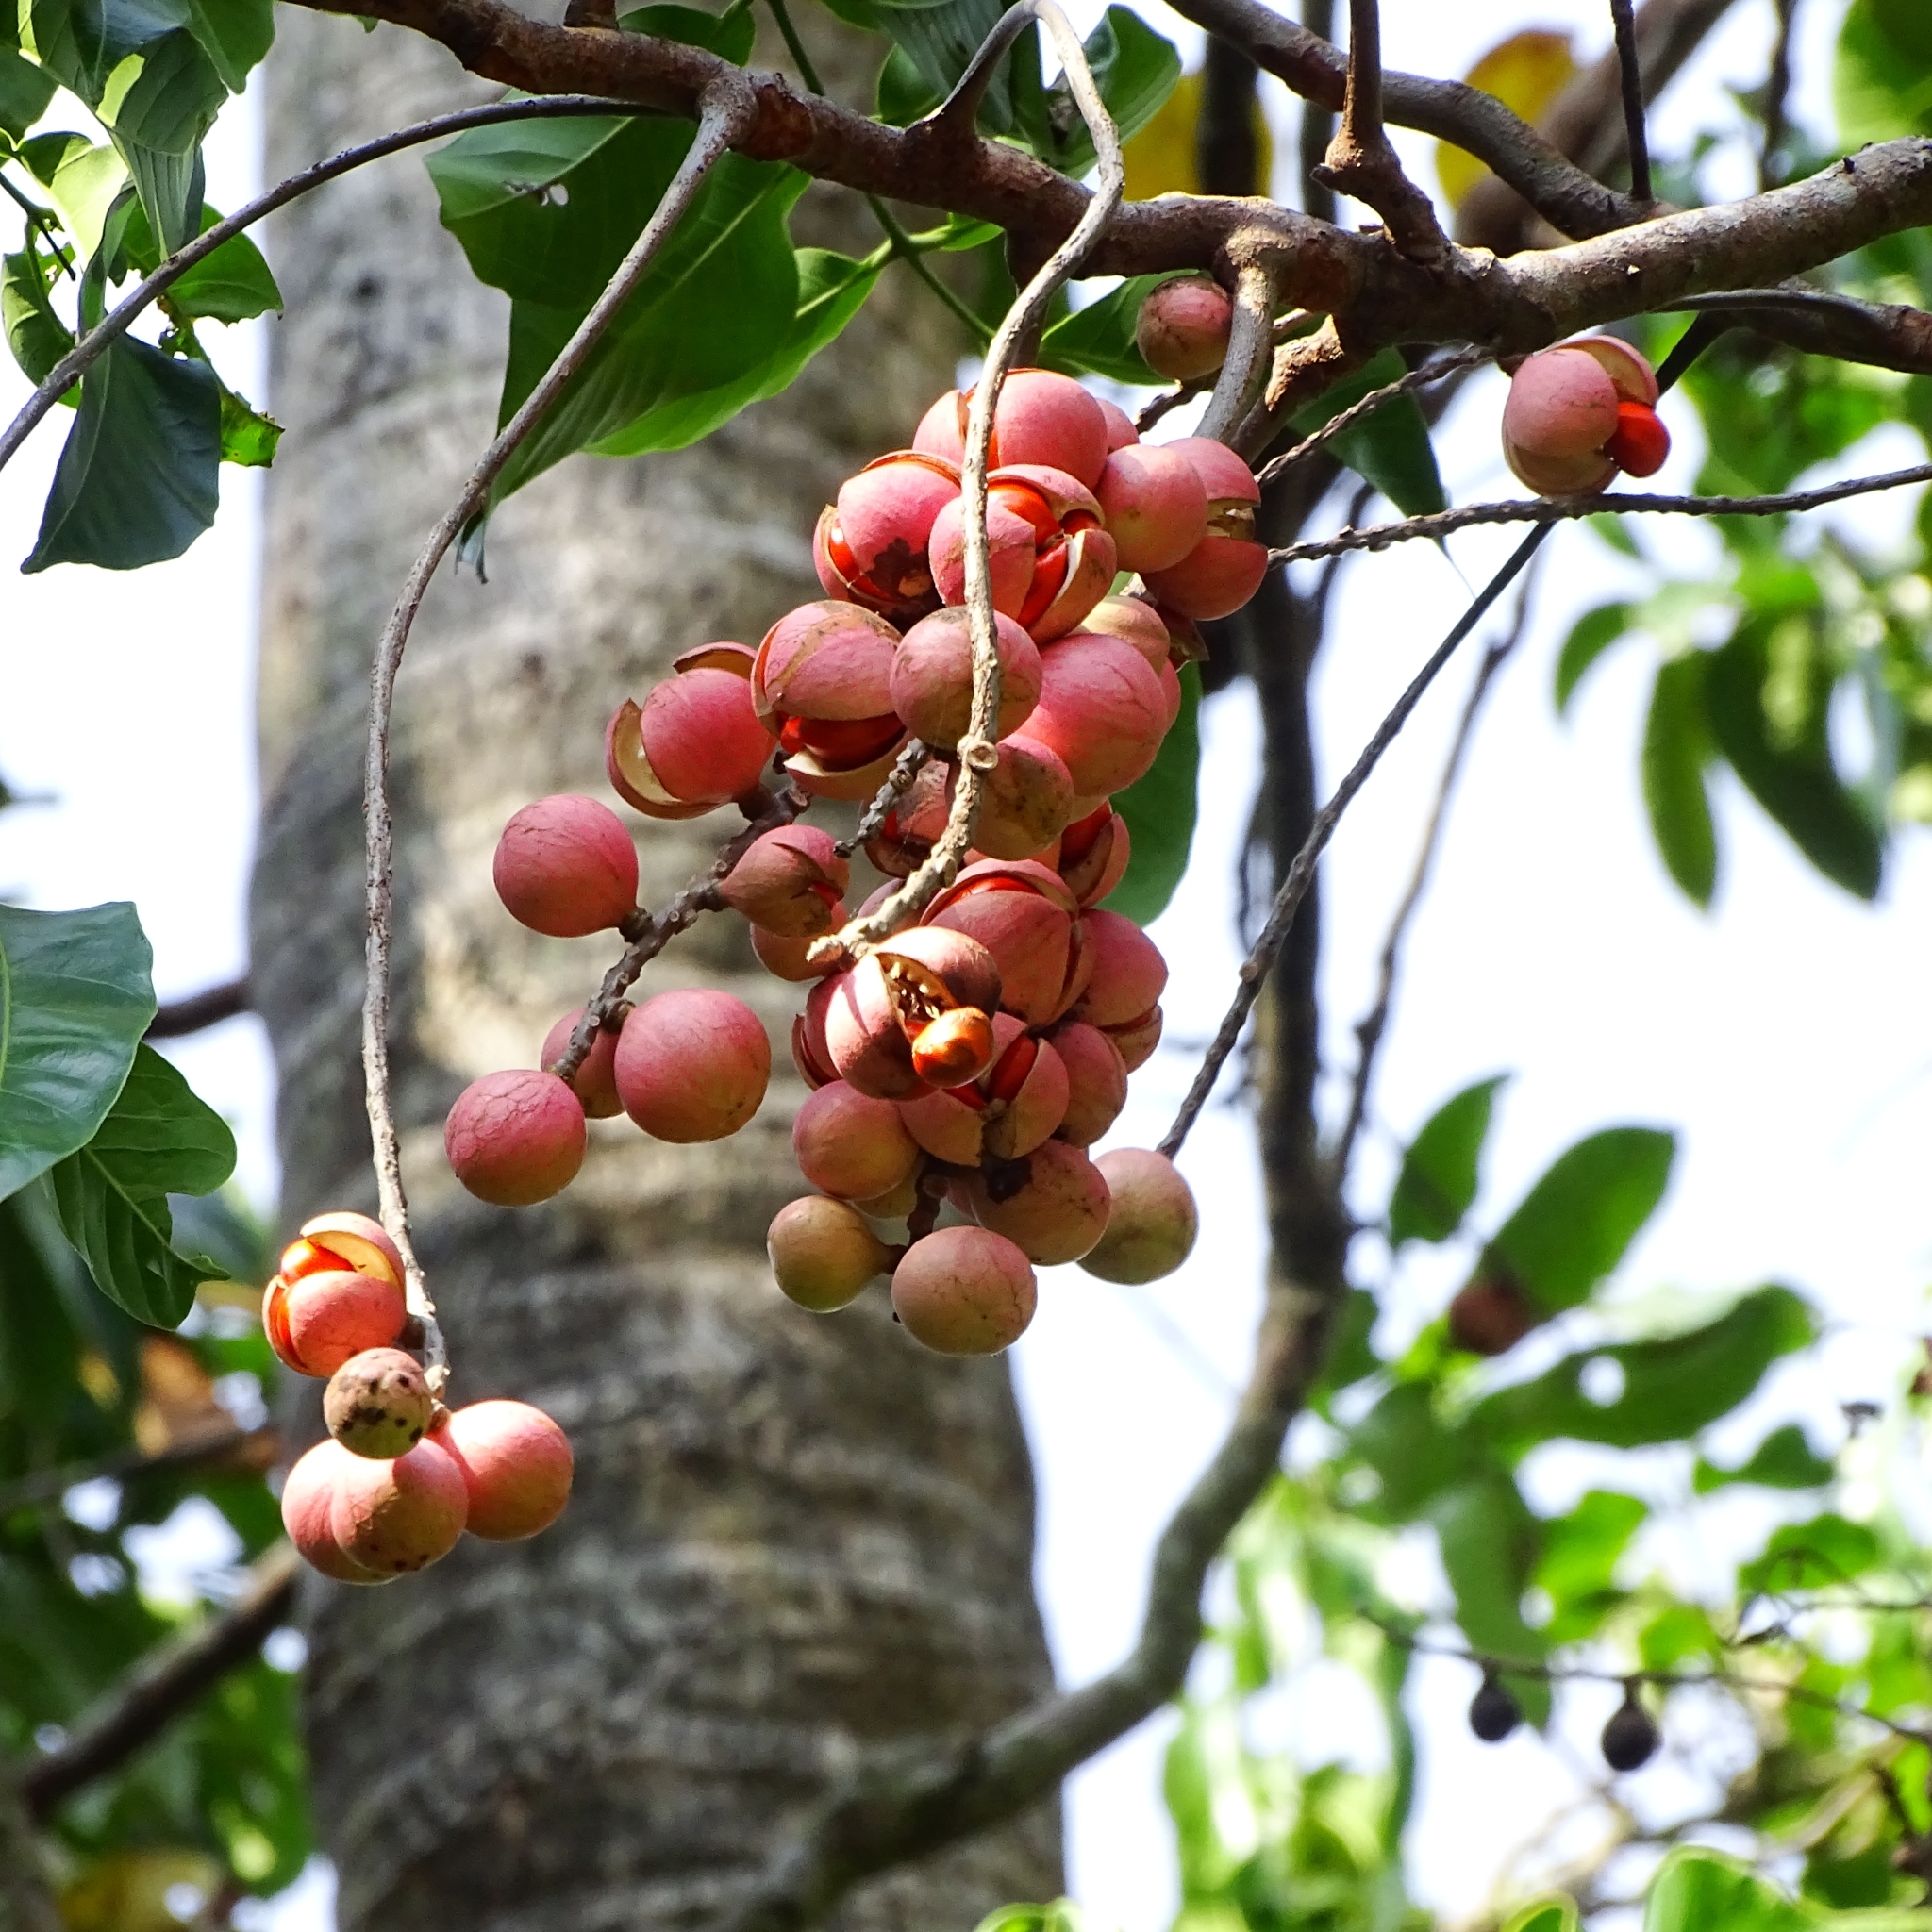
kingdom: Plantae
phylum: Tracheophyta
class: Magnoliopsida
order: Sapindales
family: Meliaceae
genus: Aphanamixis
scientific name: Aphanamixis polystachya
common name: Pithraj tree
